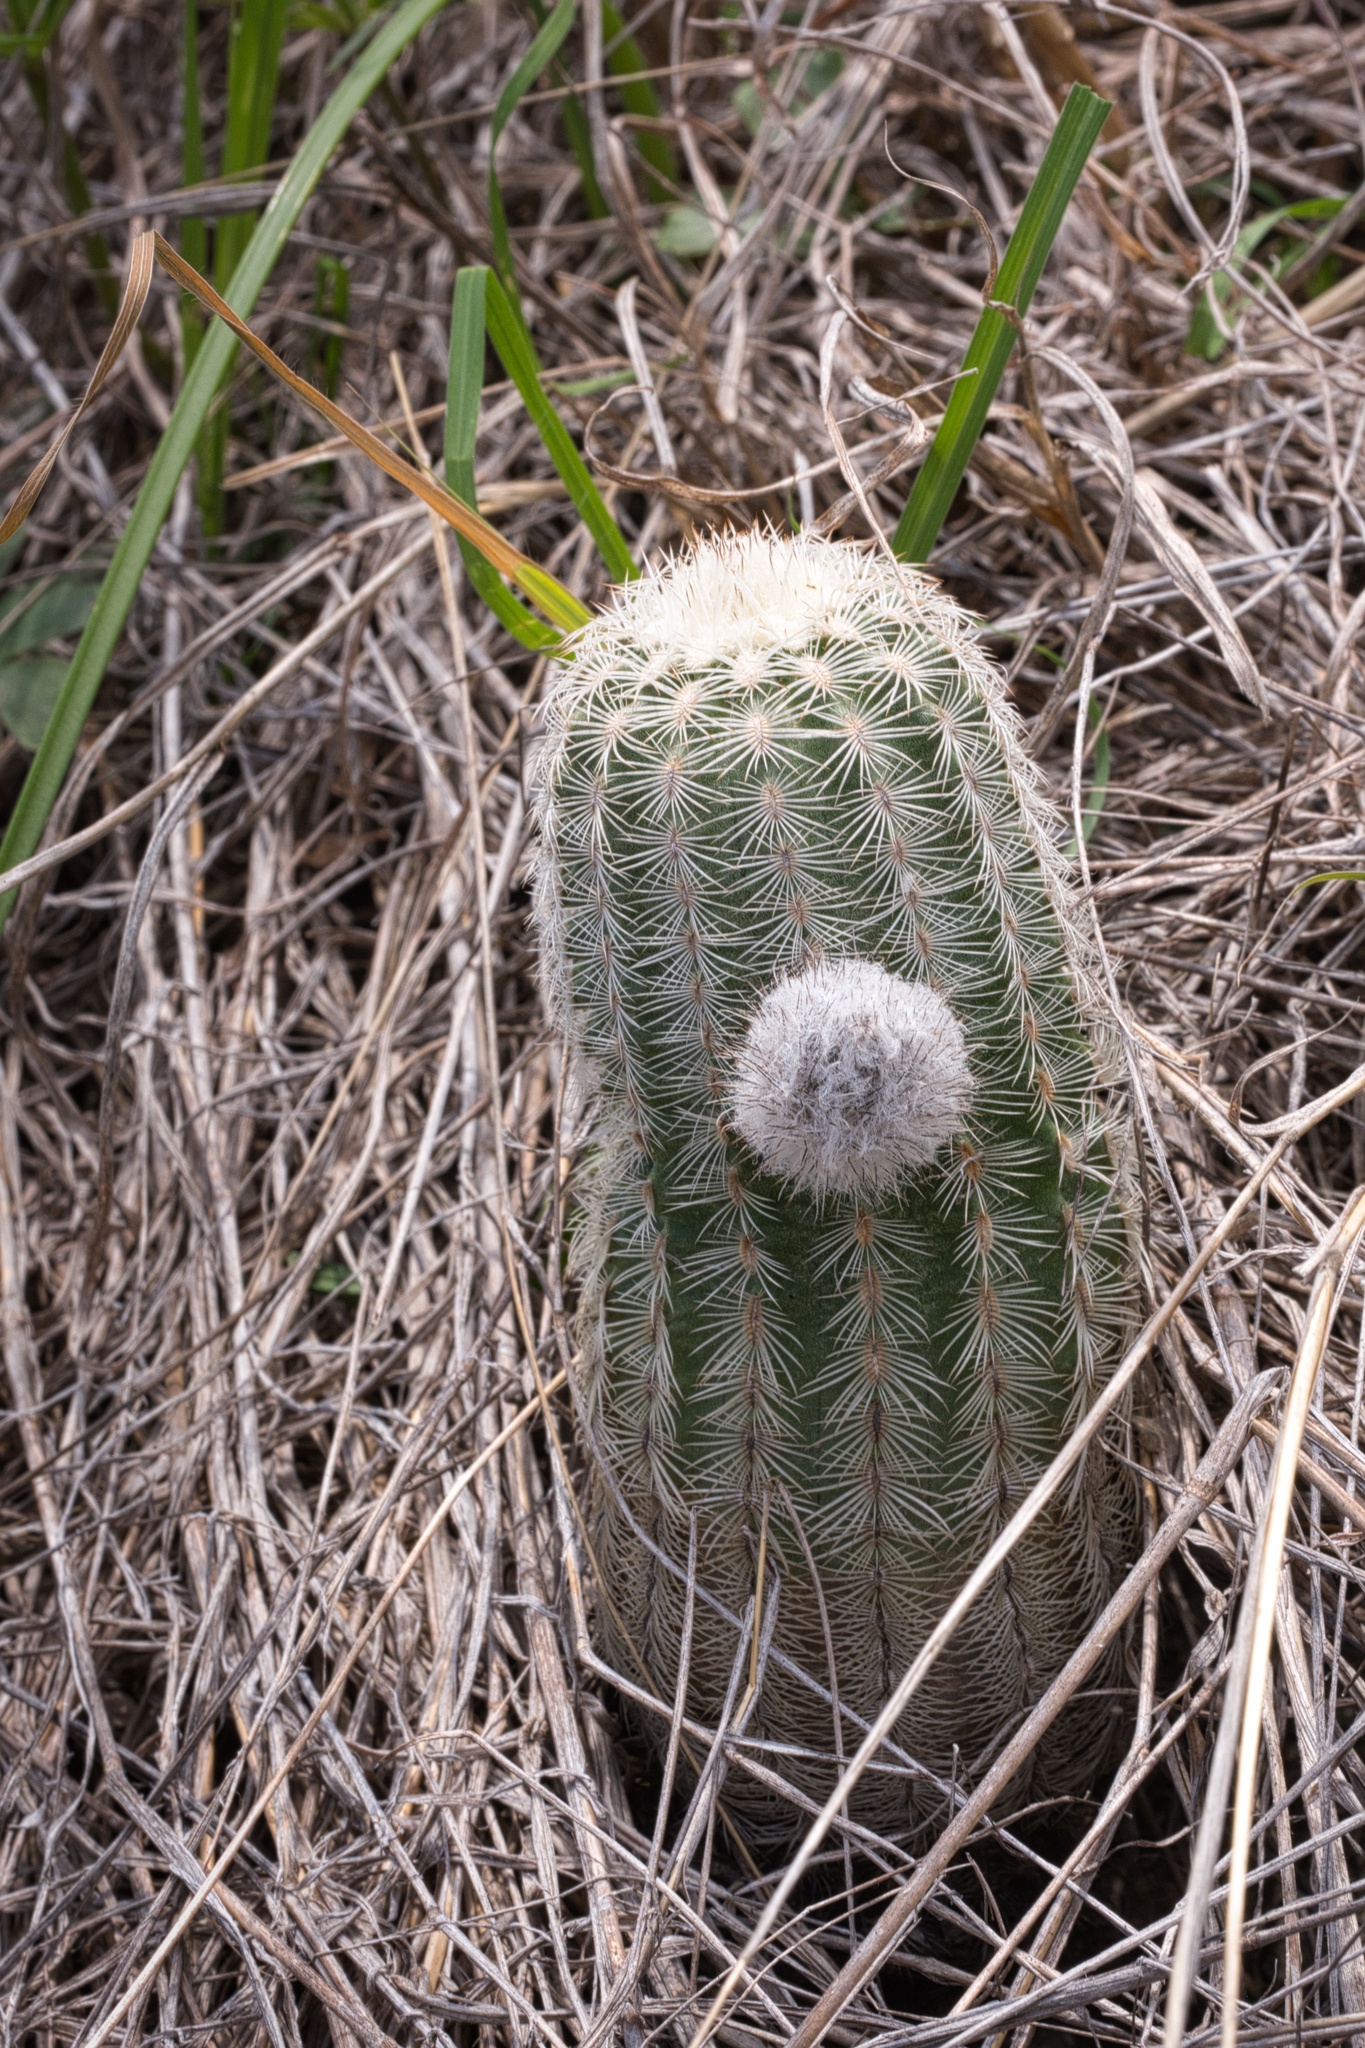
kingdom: Plantae
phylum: Tracheophyta
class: Magnoliopsida
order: Caryophyllales
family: Cactaceae
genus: Echinocereus
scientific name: Echinocereus reichenbachii
